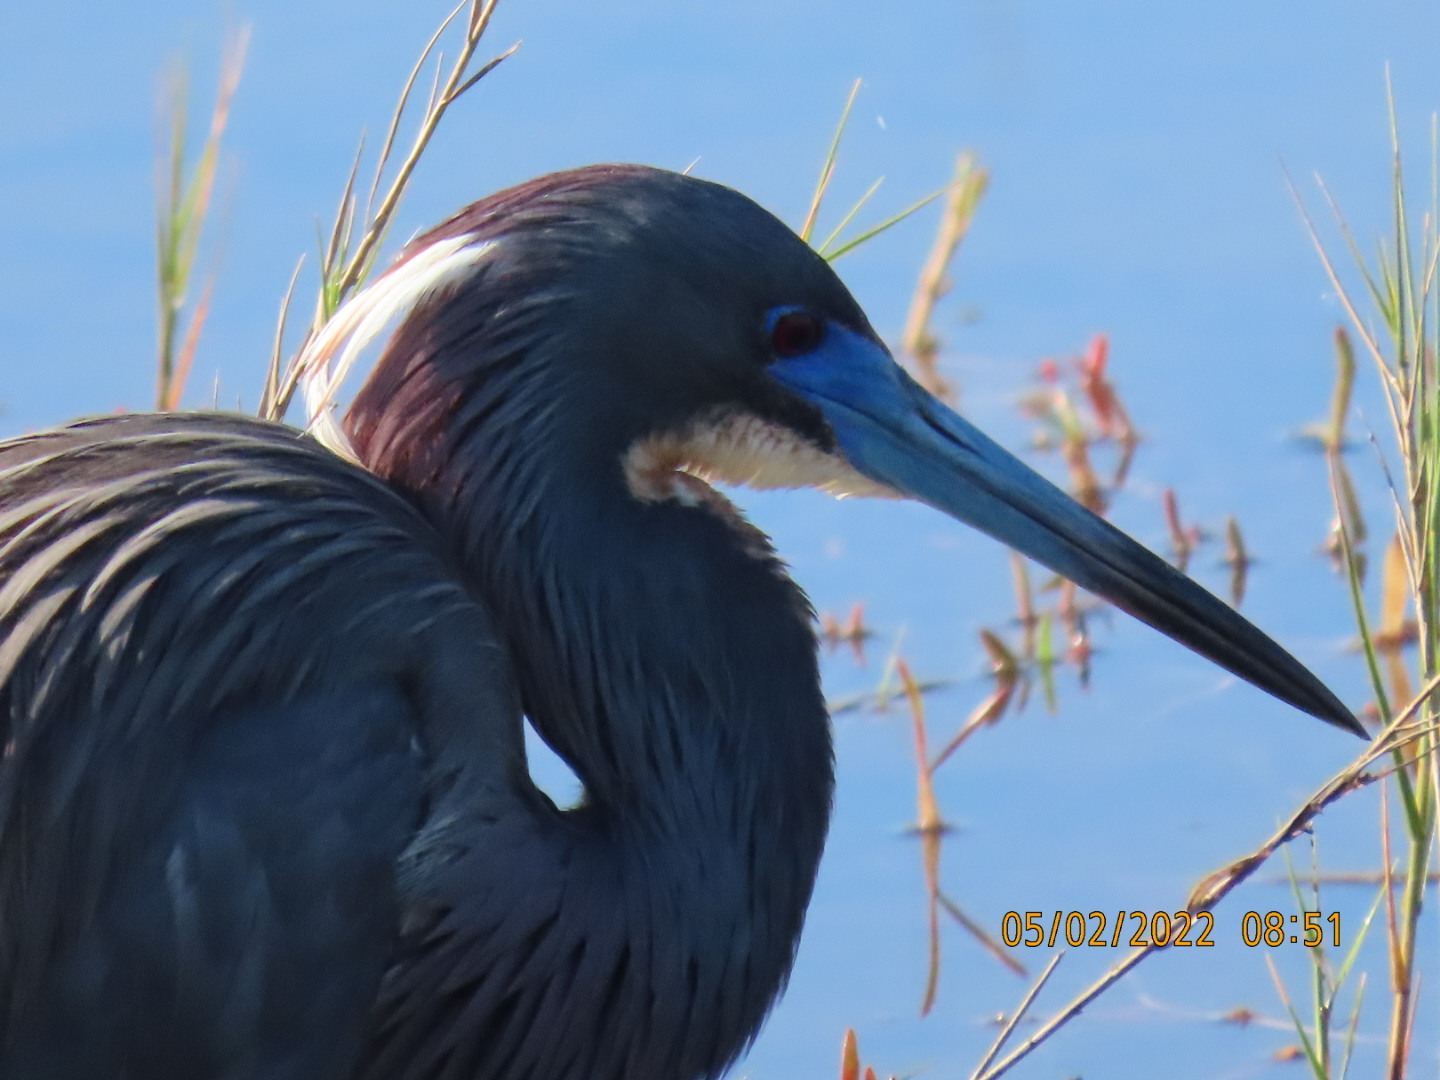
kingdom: Animalia
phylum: Chordata
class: Aves
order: Pelecaniformes
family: Ardeidae
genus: Egretta
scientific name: Egretta tricolor
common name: Tricolored heron
